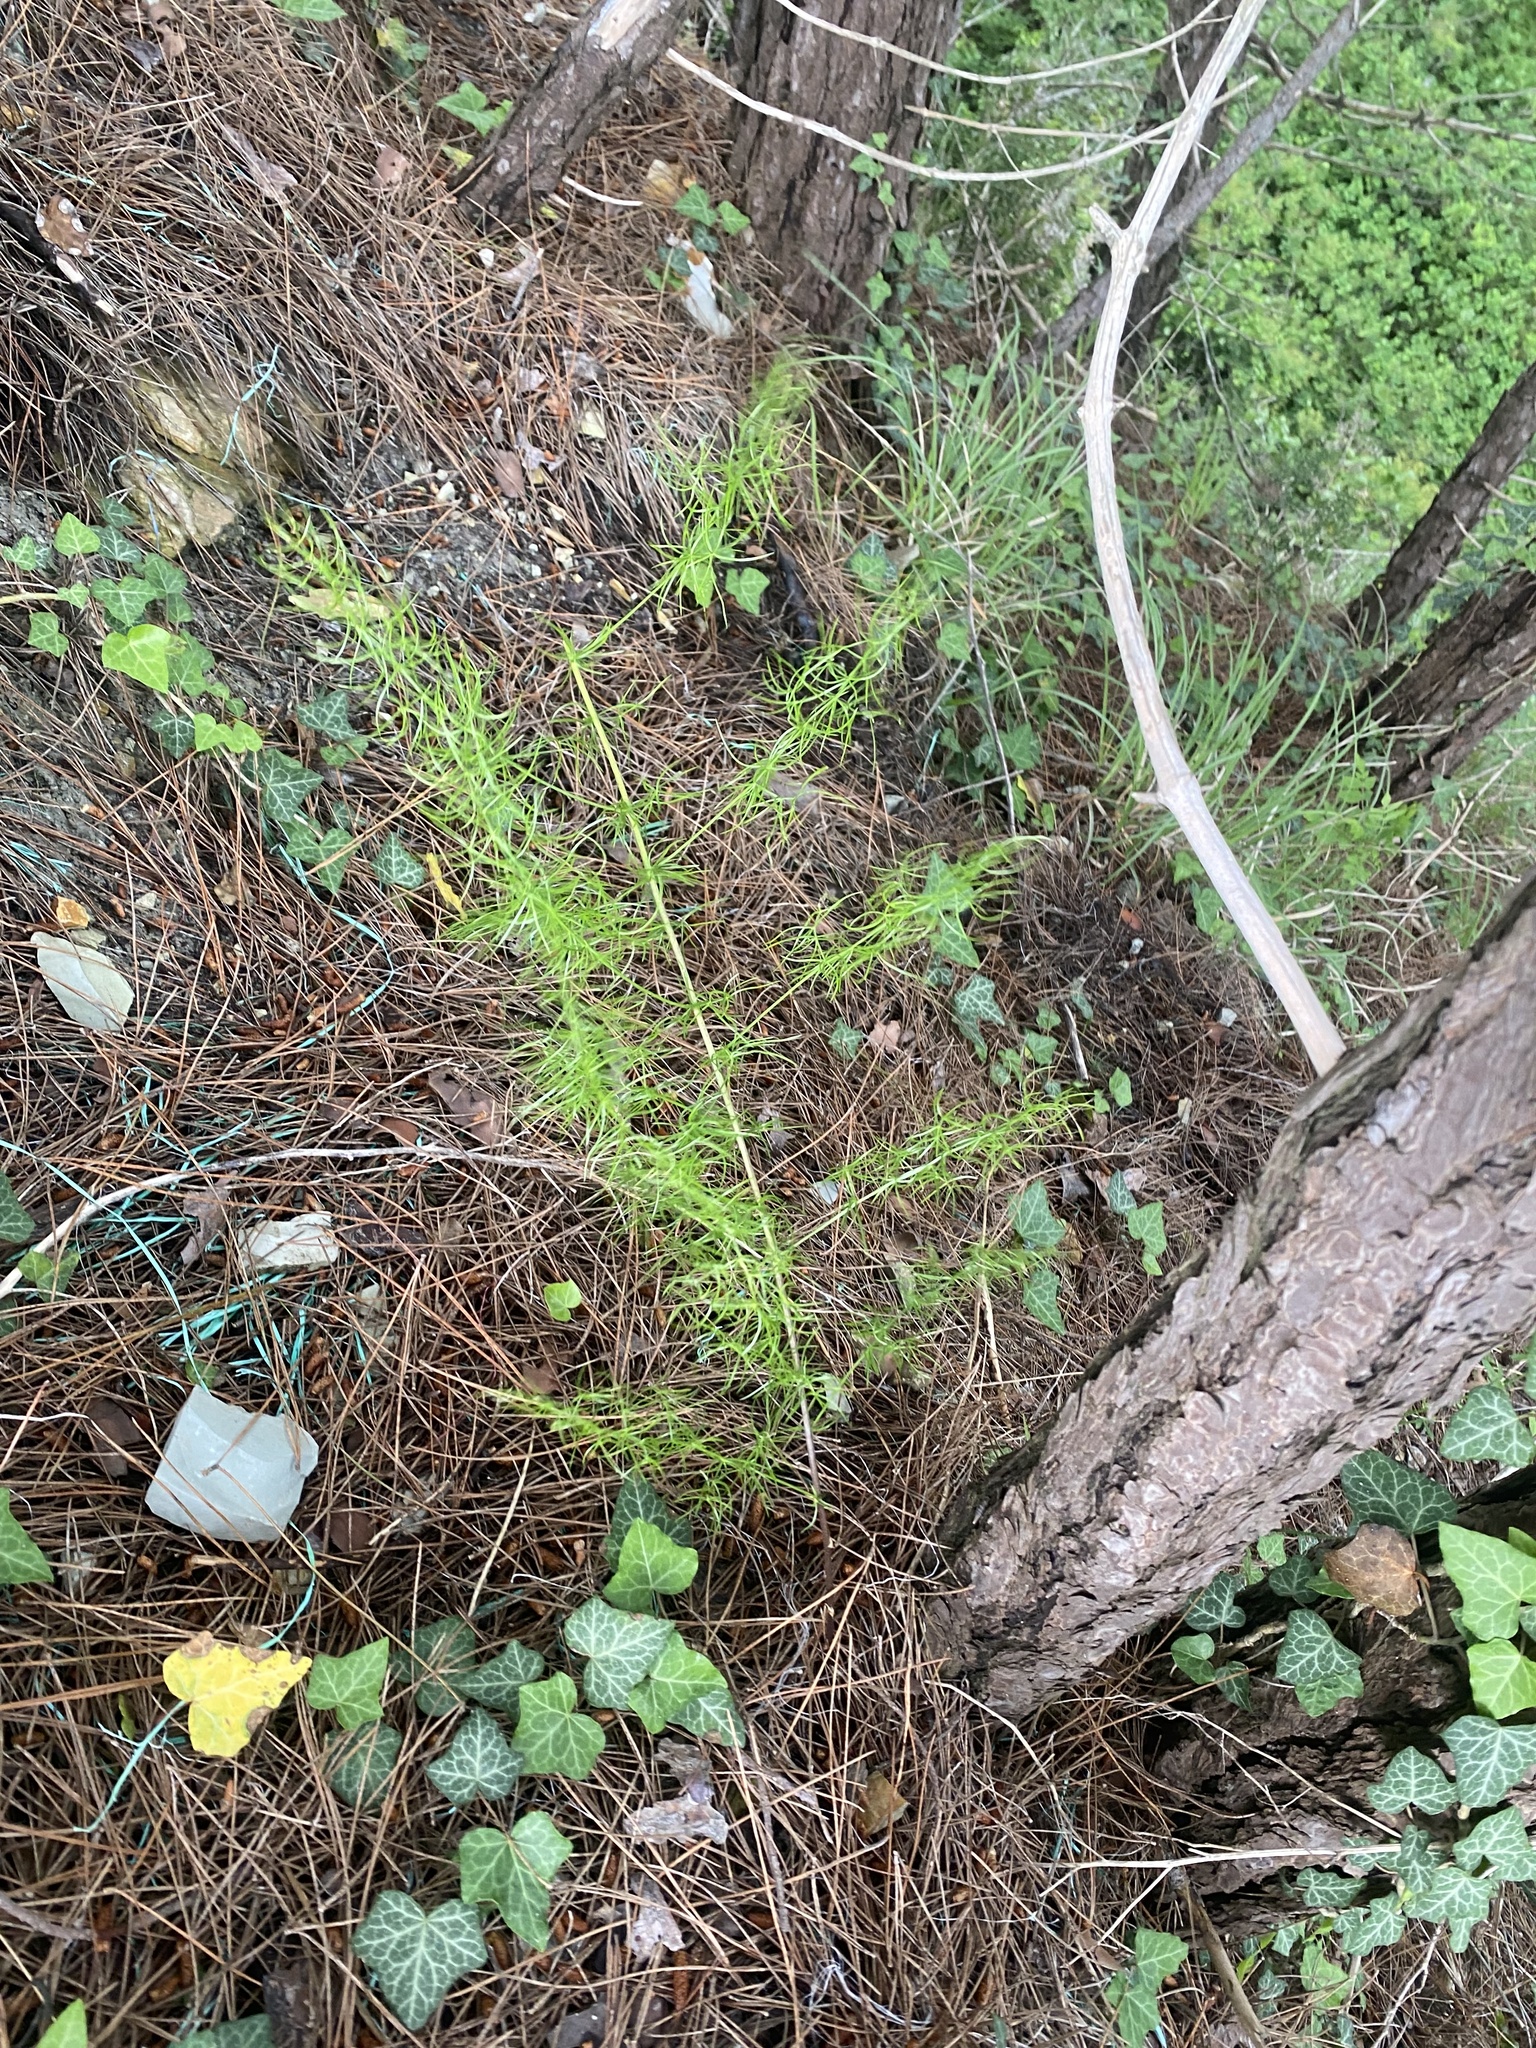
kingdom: Plantae
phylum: Tracheophyta
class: Liliopsida
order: Asparagales
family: Asparagaceae
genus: Asparagus
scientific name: Asparagus verticillatus
